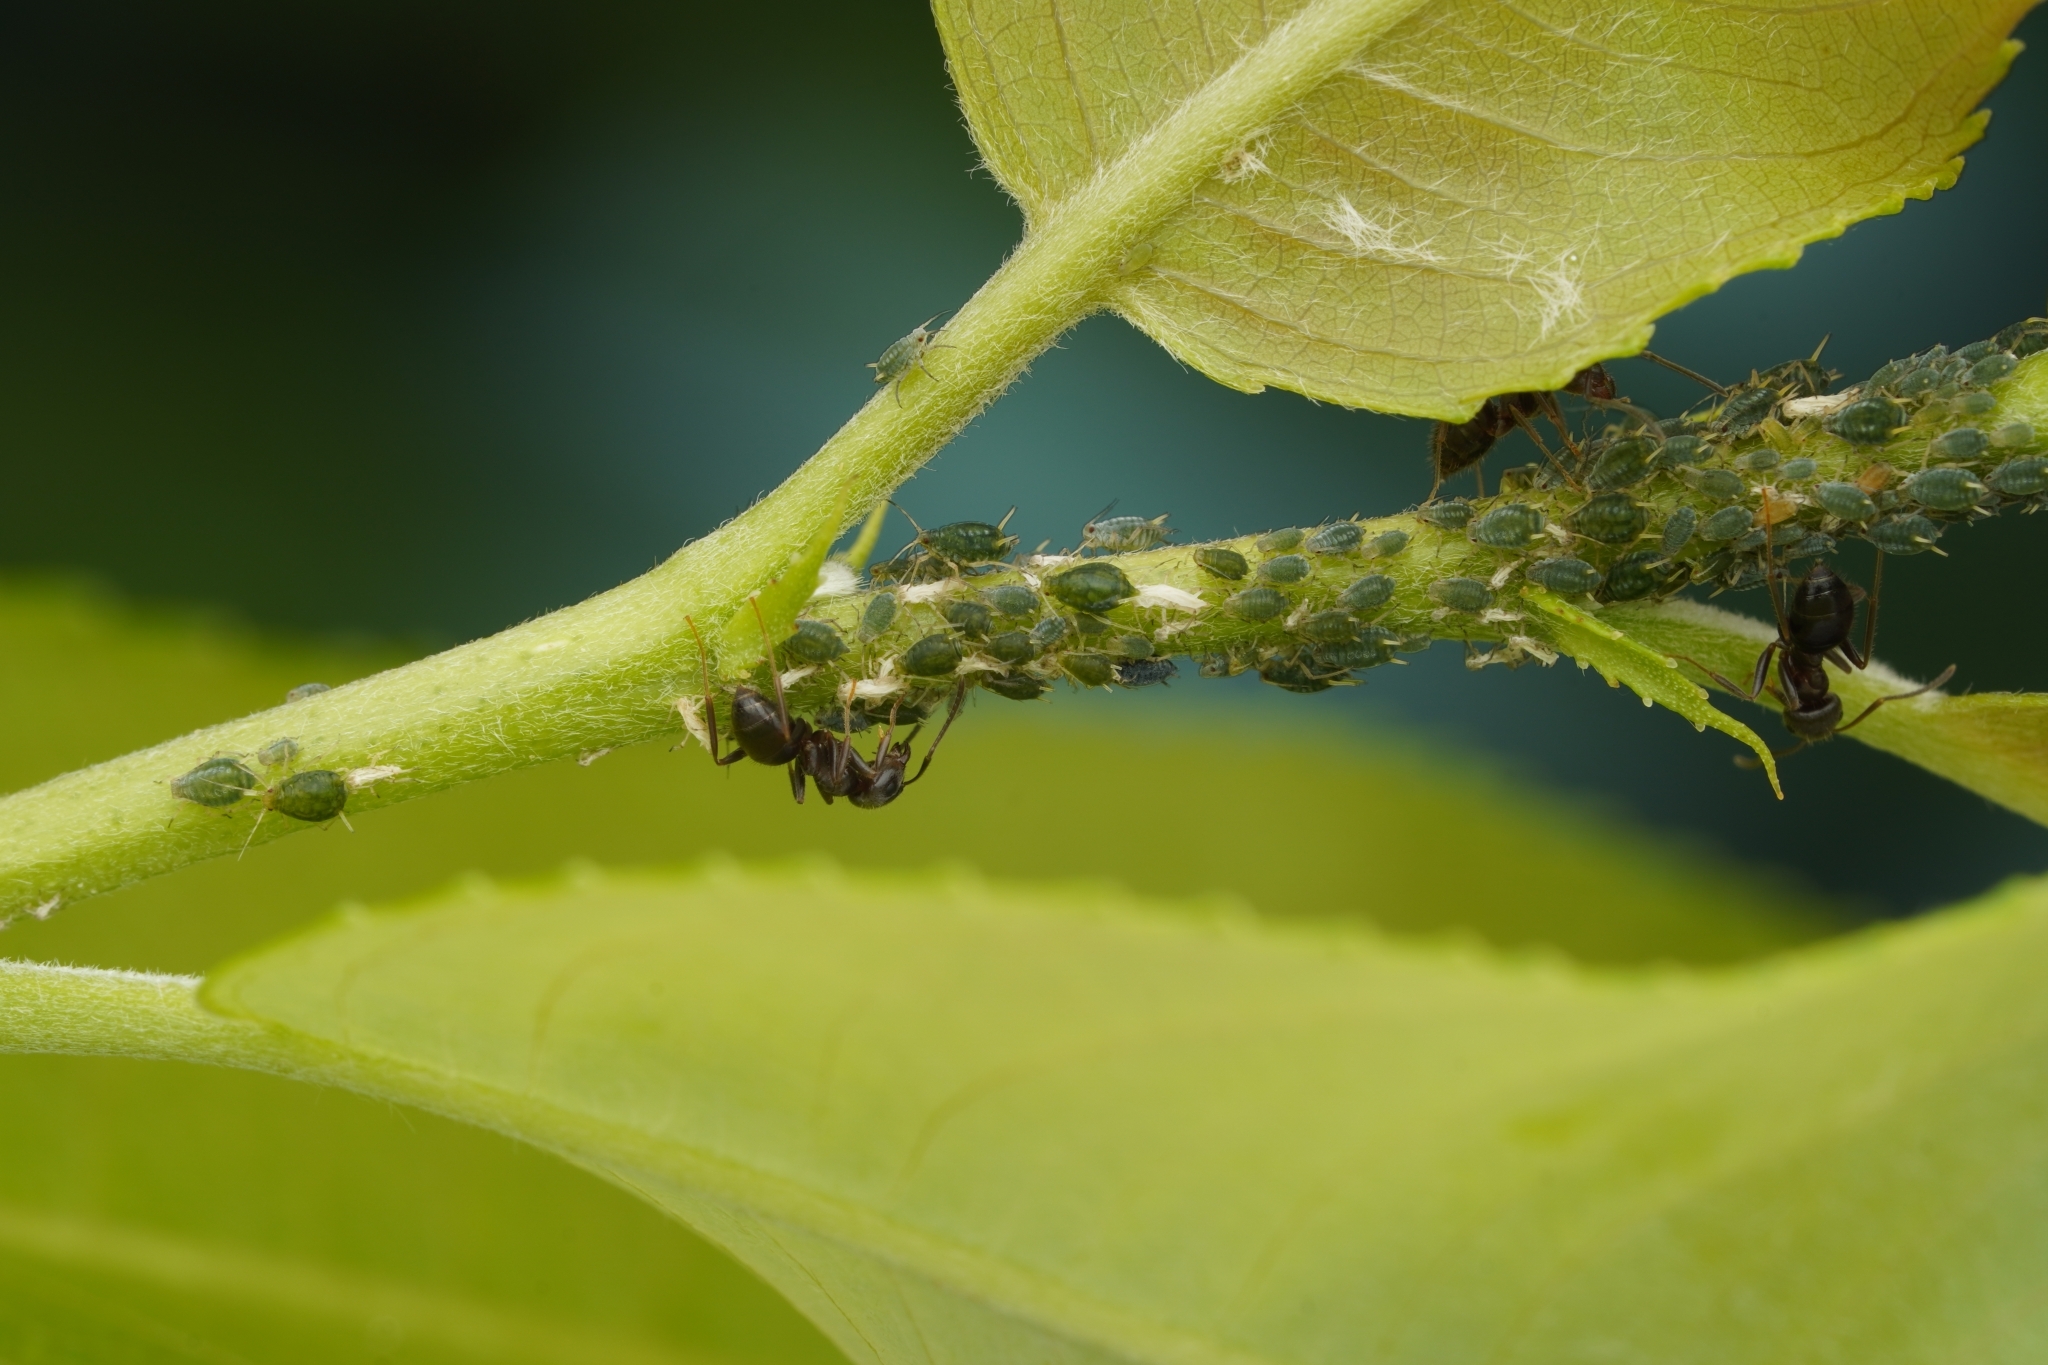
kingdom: Animalia
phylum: Arthropoda
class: Insecta
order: Hymenoptera
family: Formicidae
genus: Lasius
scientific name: Lasius japonicus
